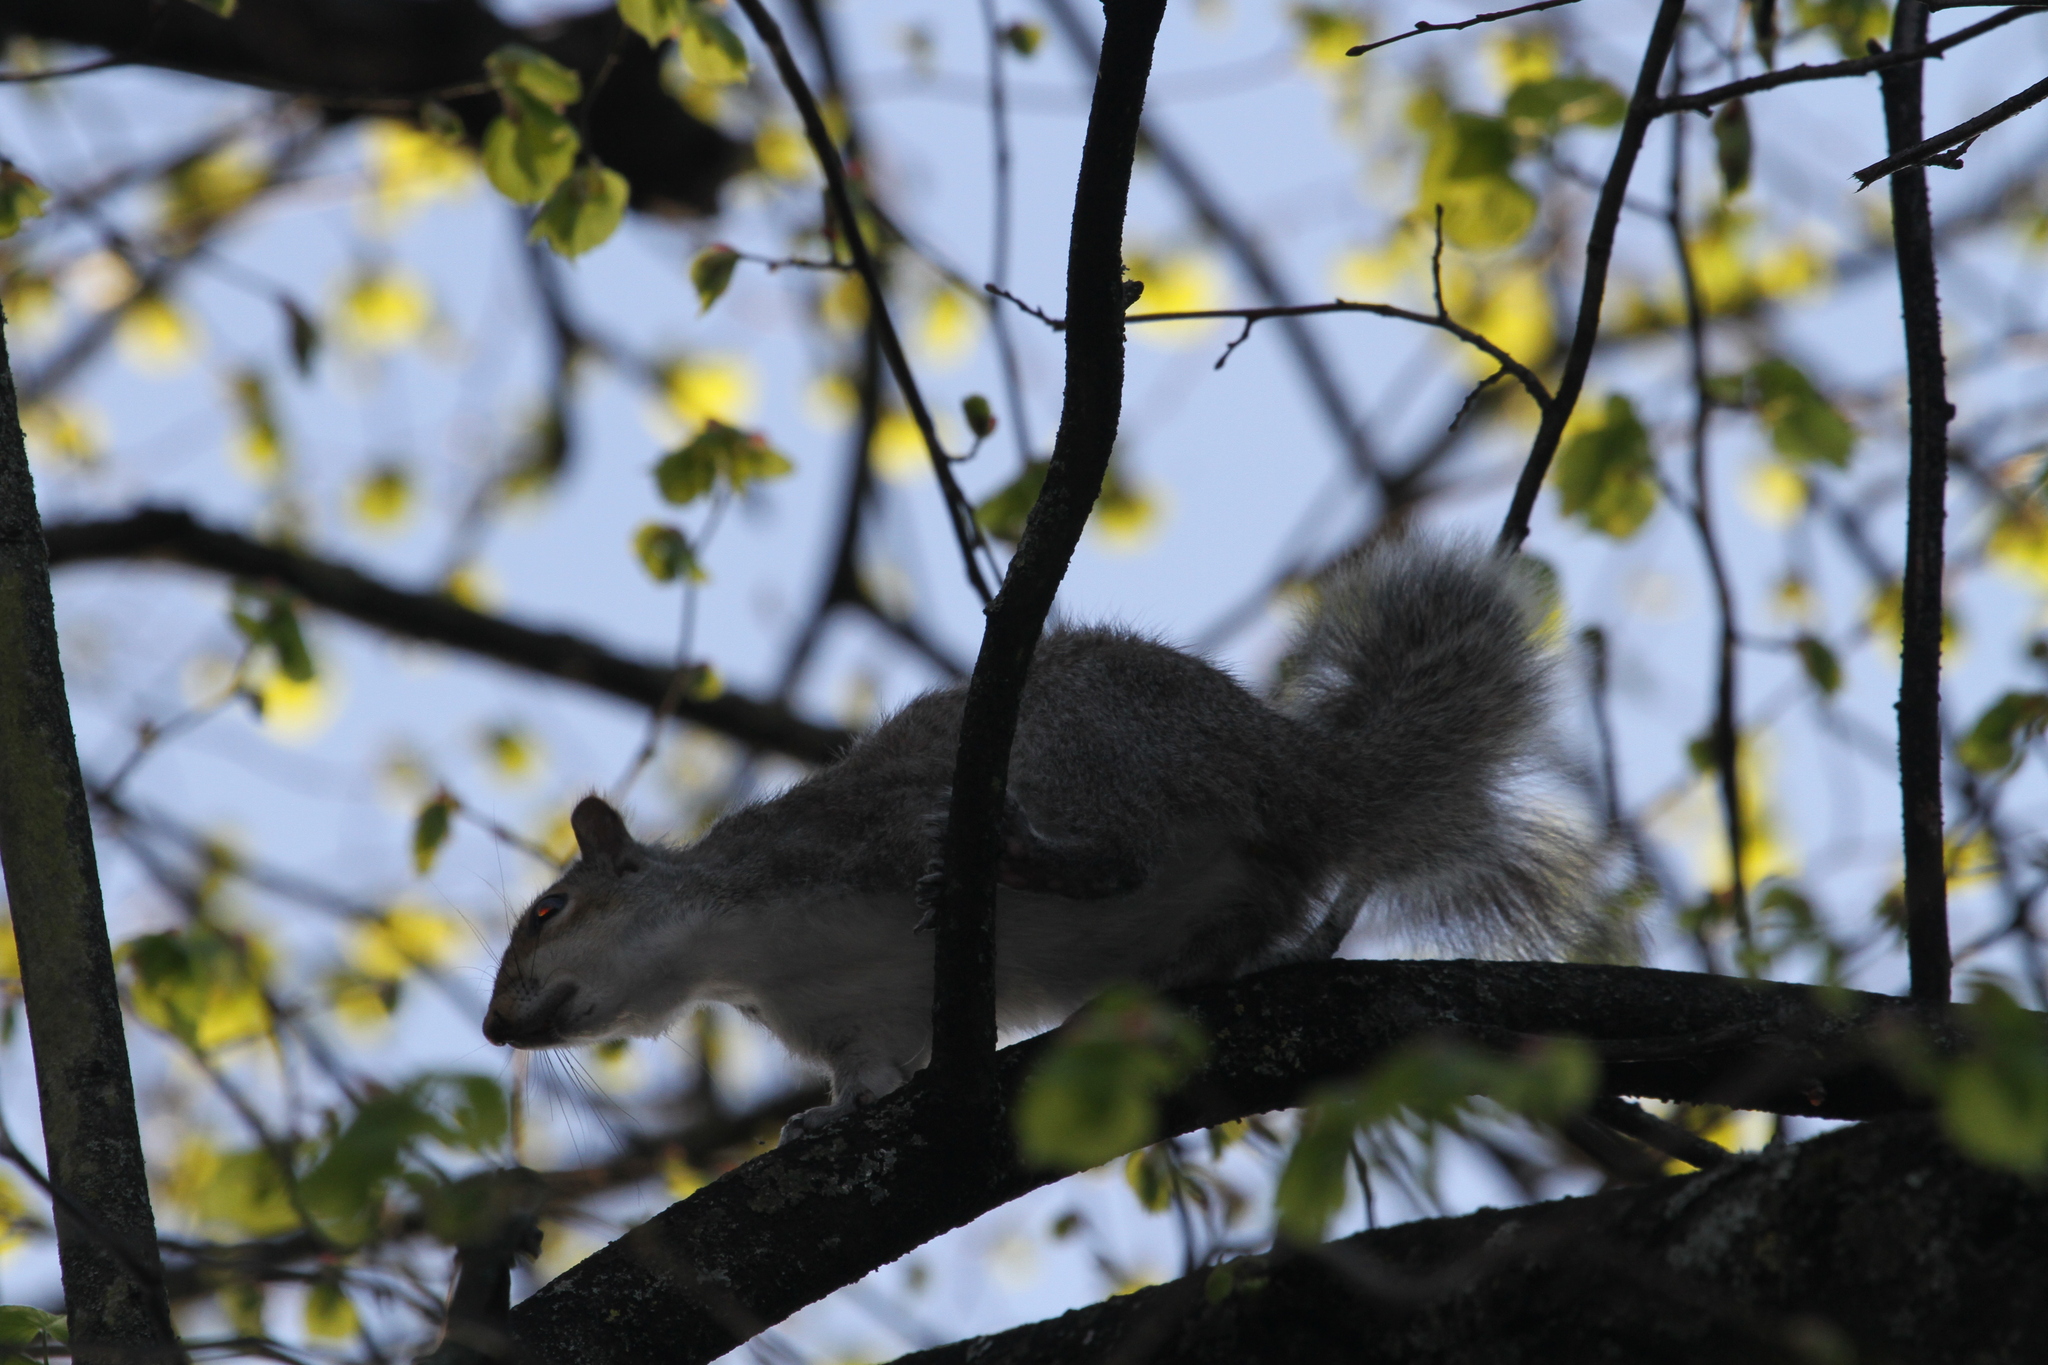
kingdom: Animalia
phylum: Chordata
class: Mammalia
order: Rodentia
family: Sciuridae
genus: Sciurus
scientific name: Sciurus carolinensis
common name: Eastern gray squirrel
